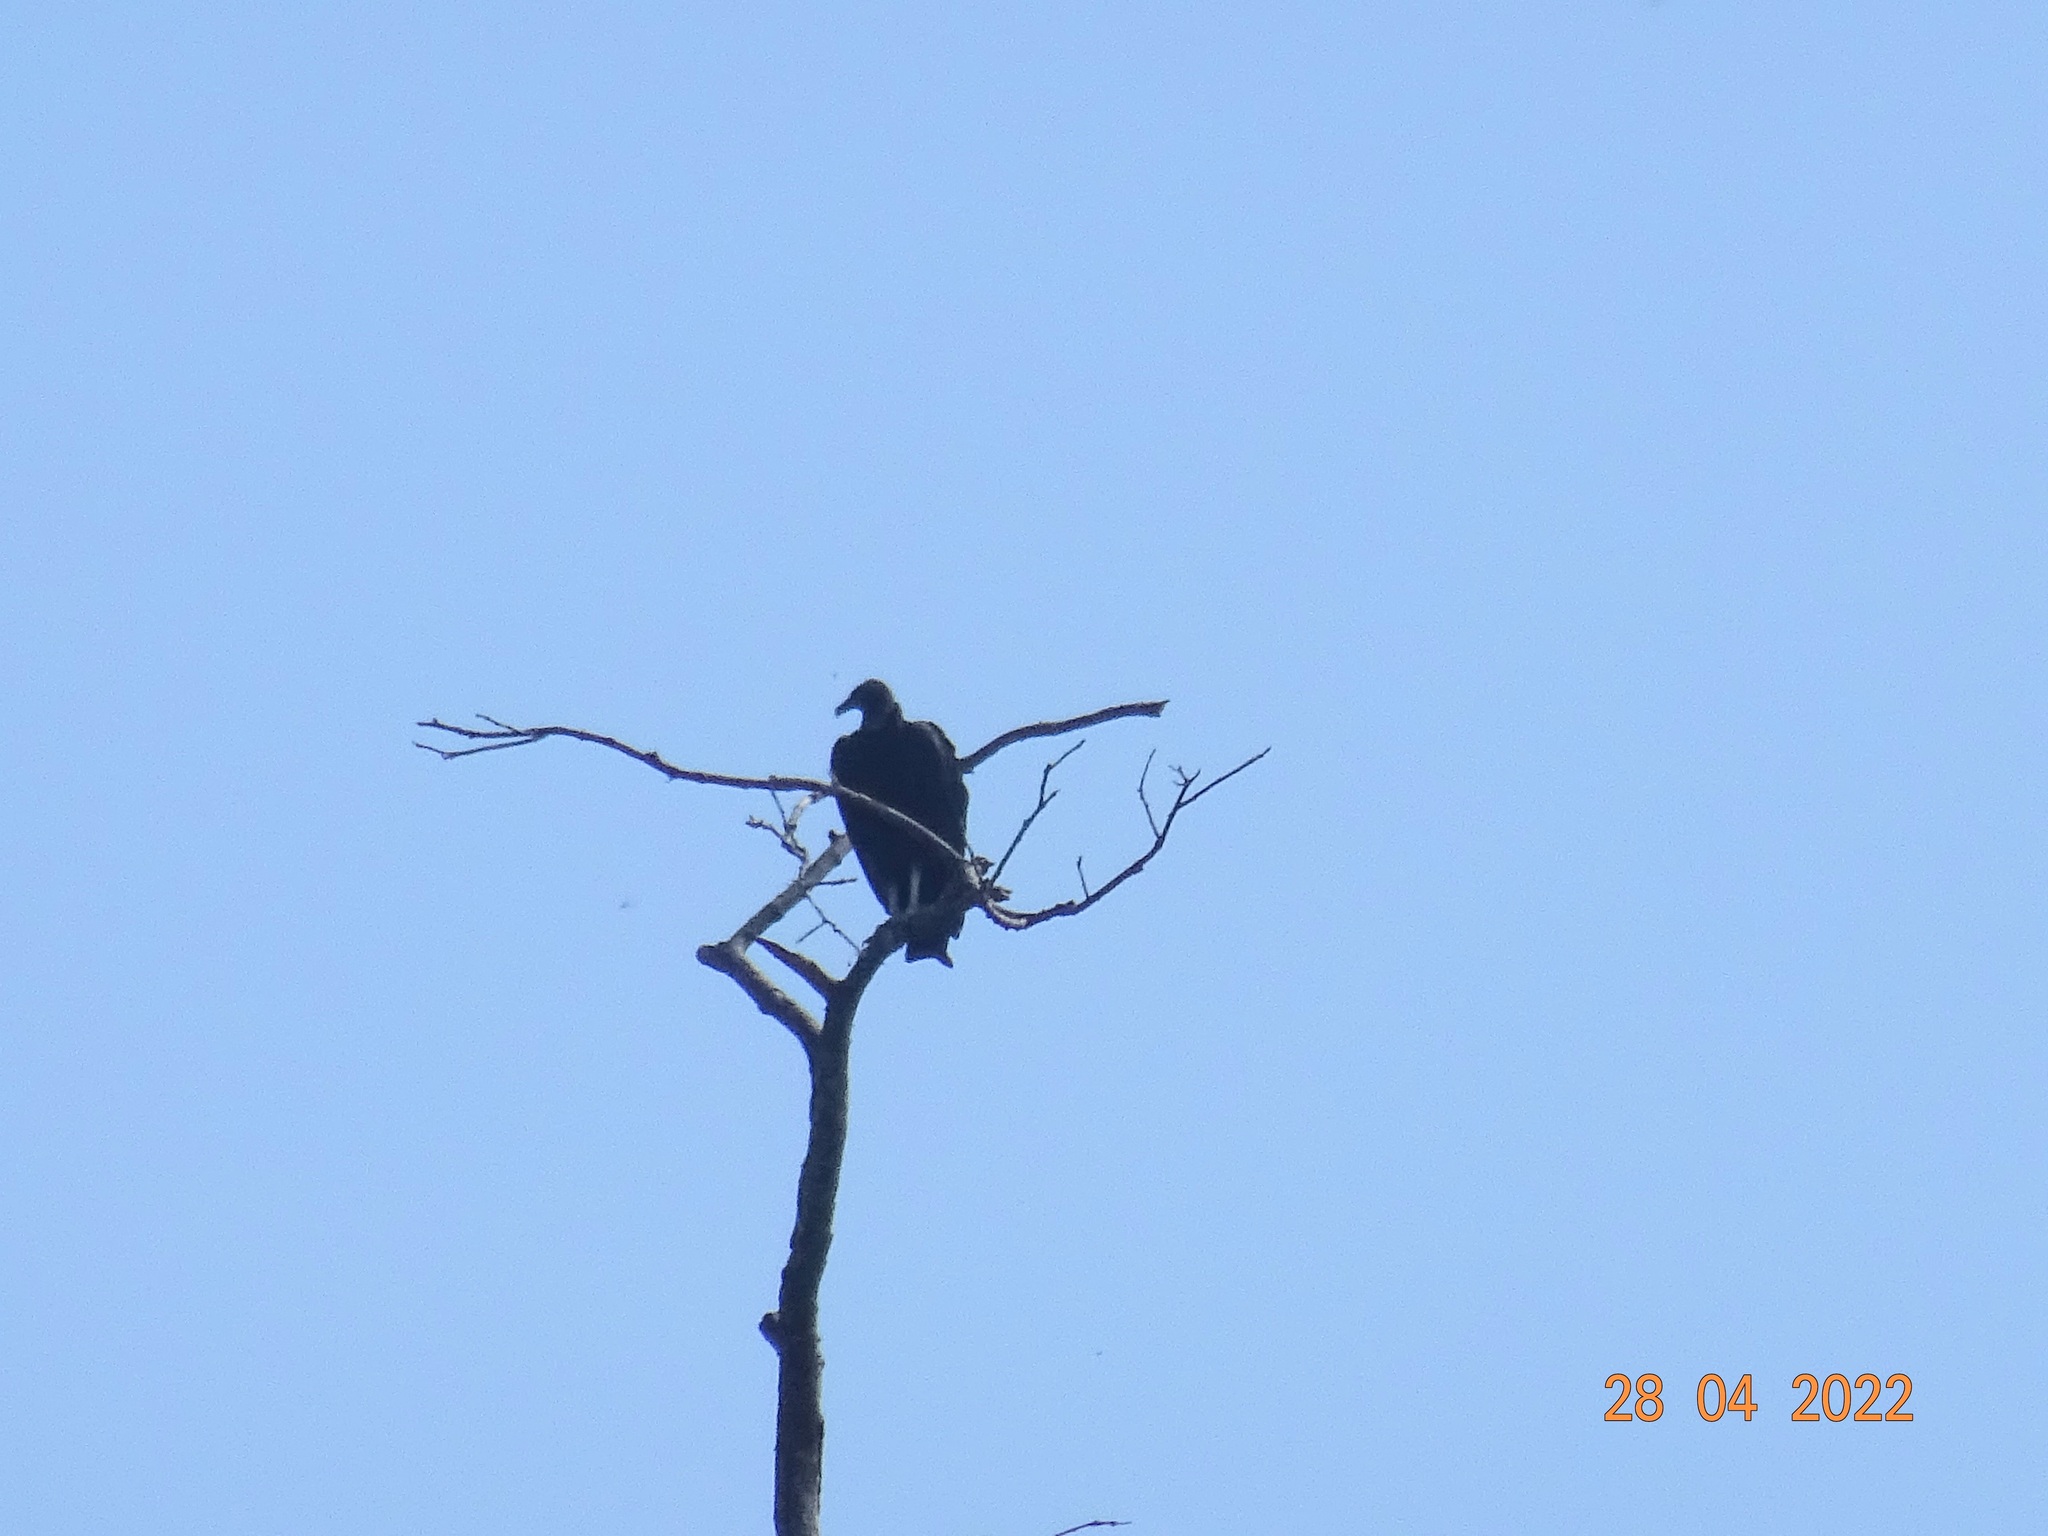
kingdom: Animalia
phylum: Chordata
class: Aves
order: Accipitriformes
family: Cathartidae
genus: Coragyps
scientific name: Coragyps atratus
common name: Black vulture
